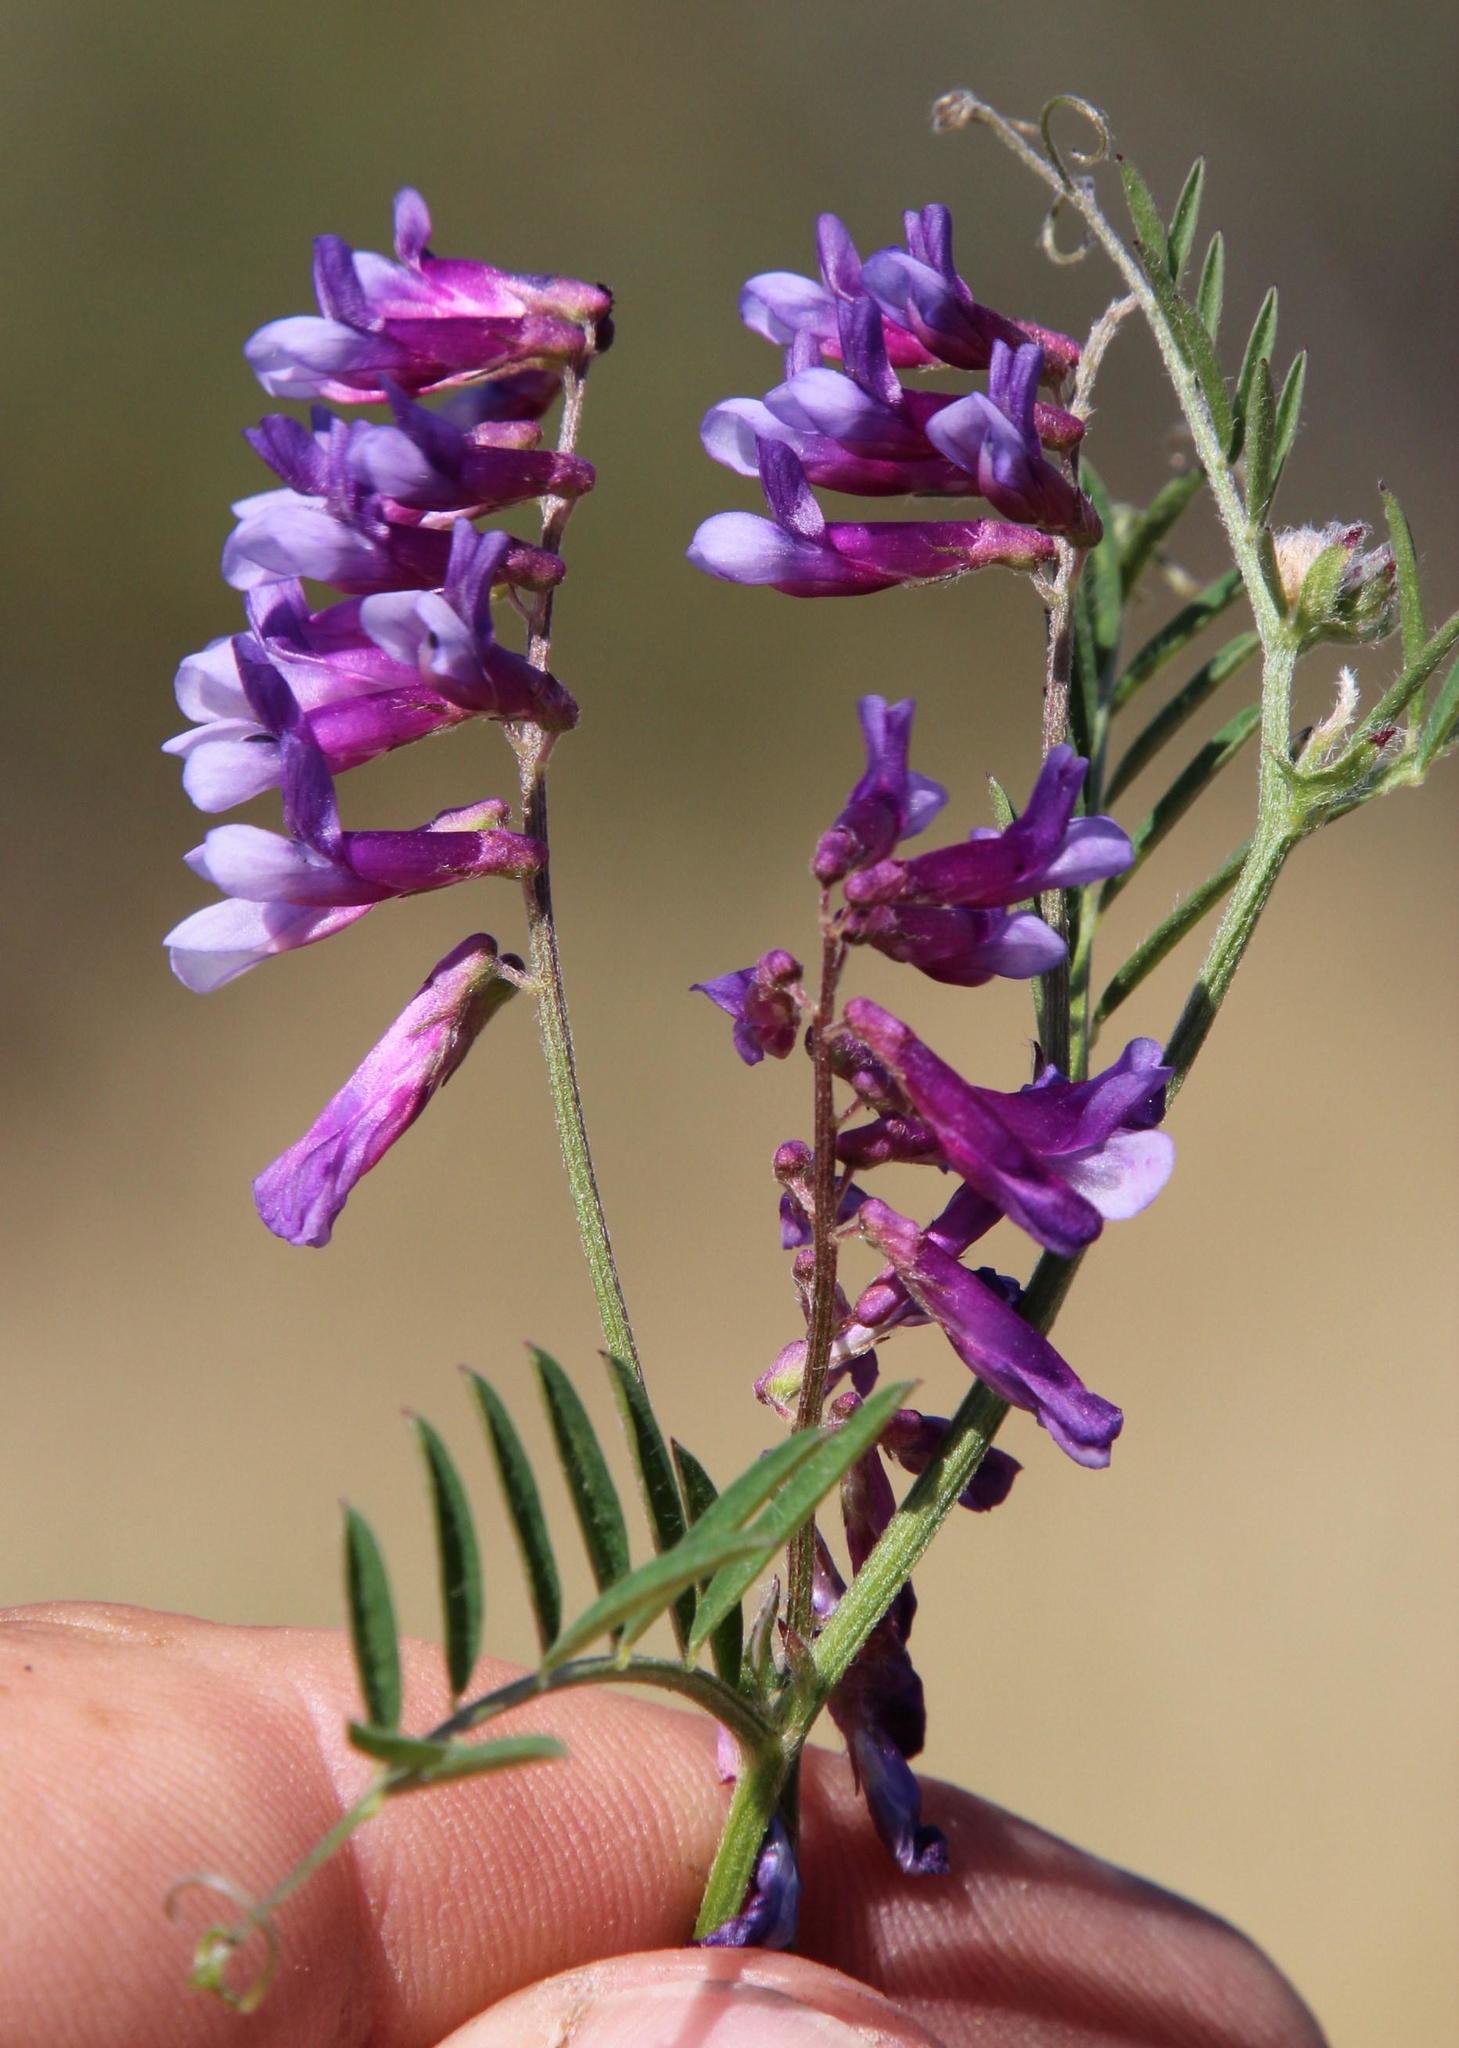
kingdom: Plantae
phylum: Tracheophyta
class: Magnoliopsida
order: Fabales
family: Fabaceae
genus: Vicia
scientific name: Vicia eriocarpa
